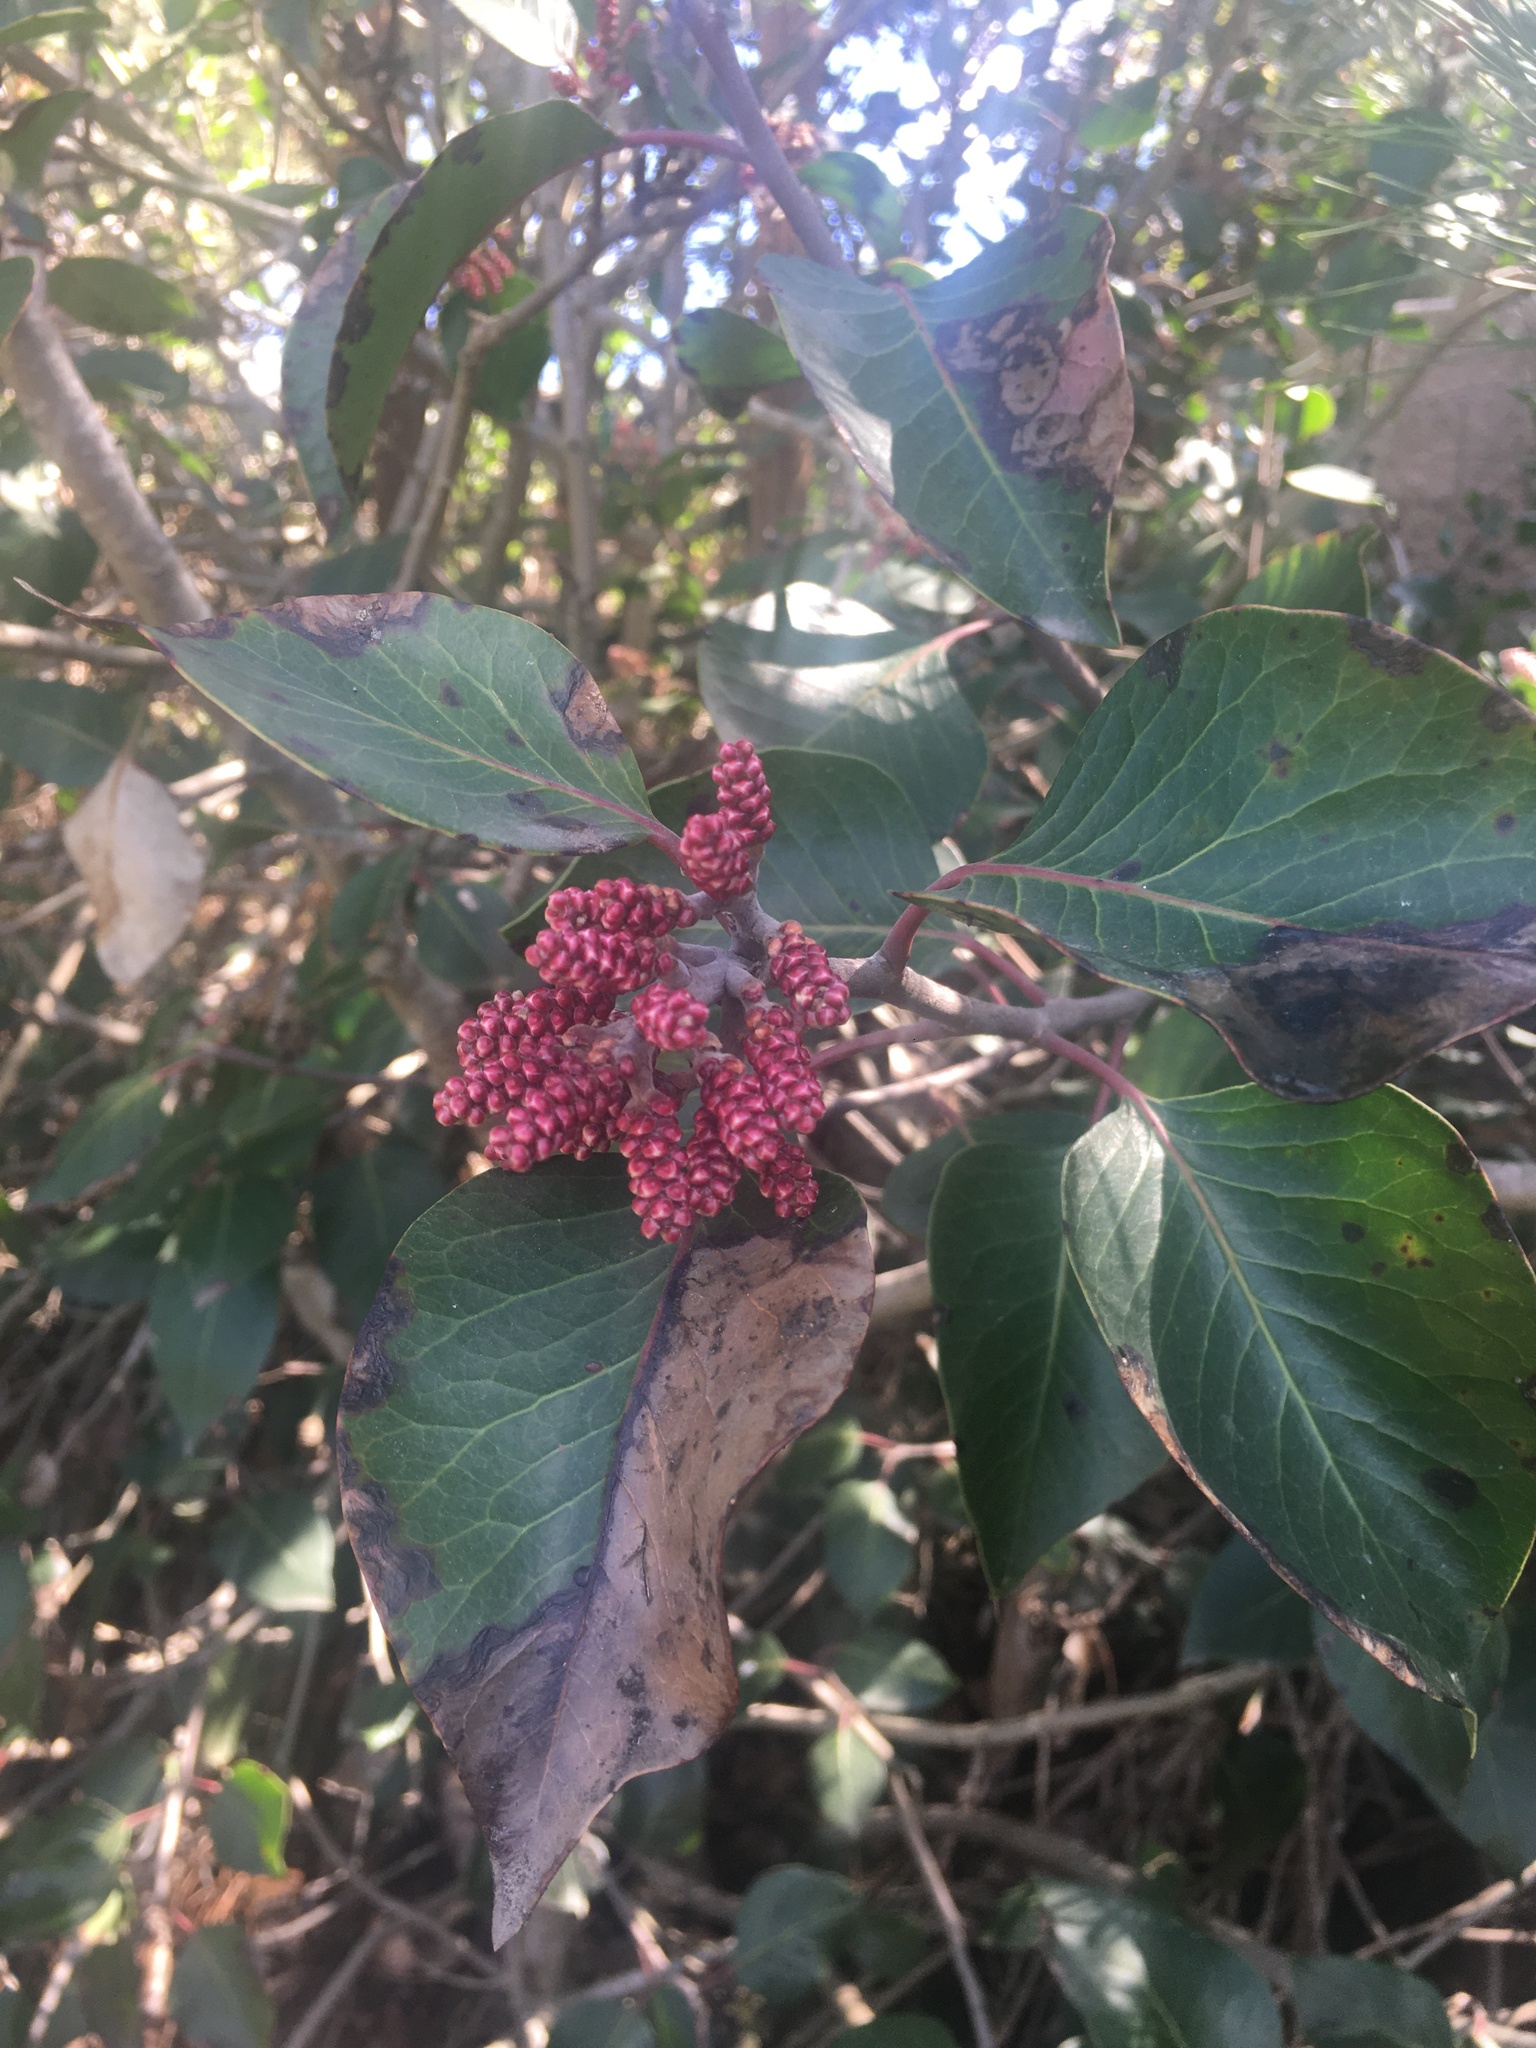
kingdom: Plantae
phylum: Tracheophyta
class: Magnoliopsida
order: Sapindales
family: Anacardiaceae
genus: Rhus
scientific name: Rhus ovata
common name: Sugar sumac
